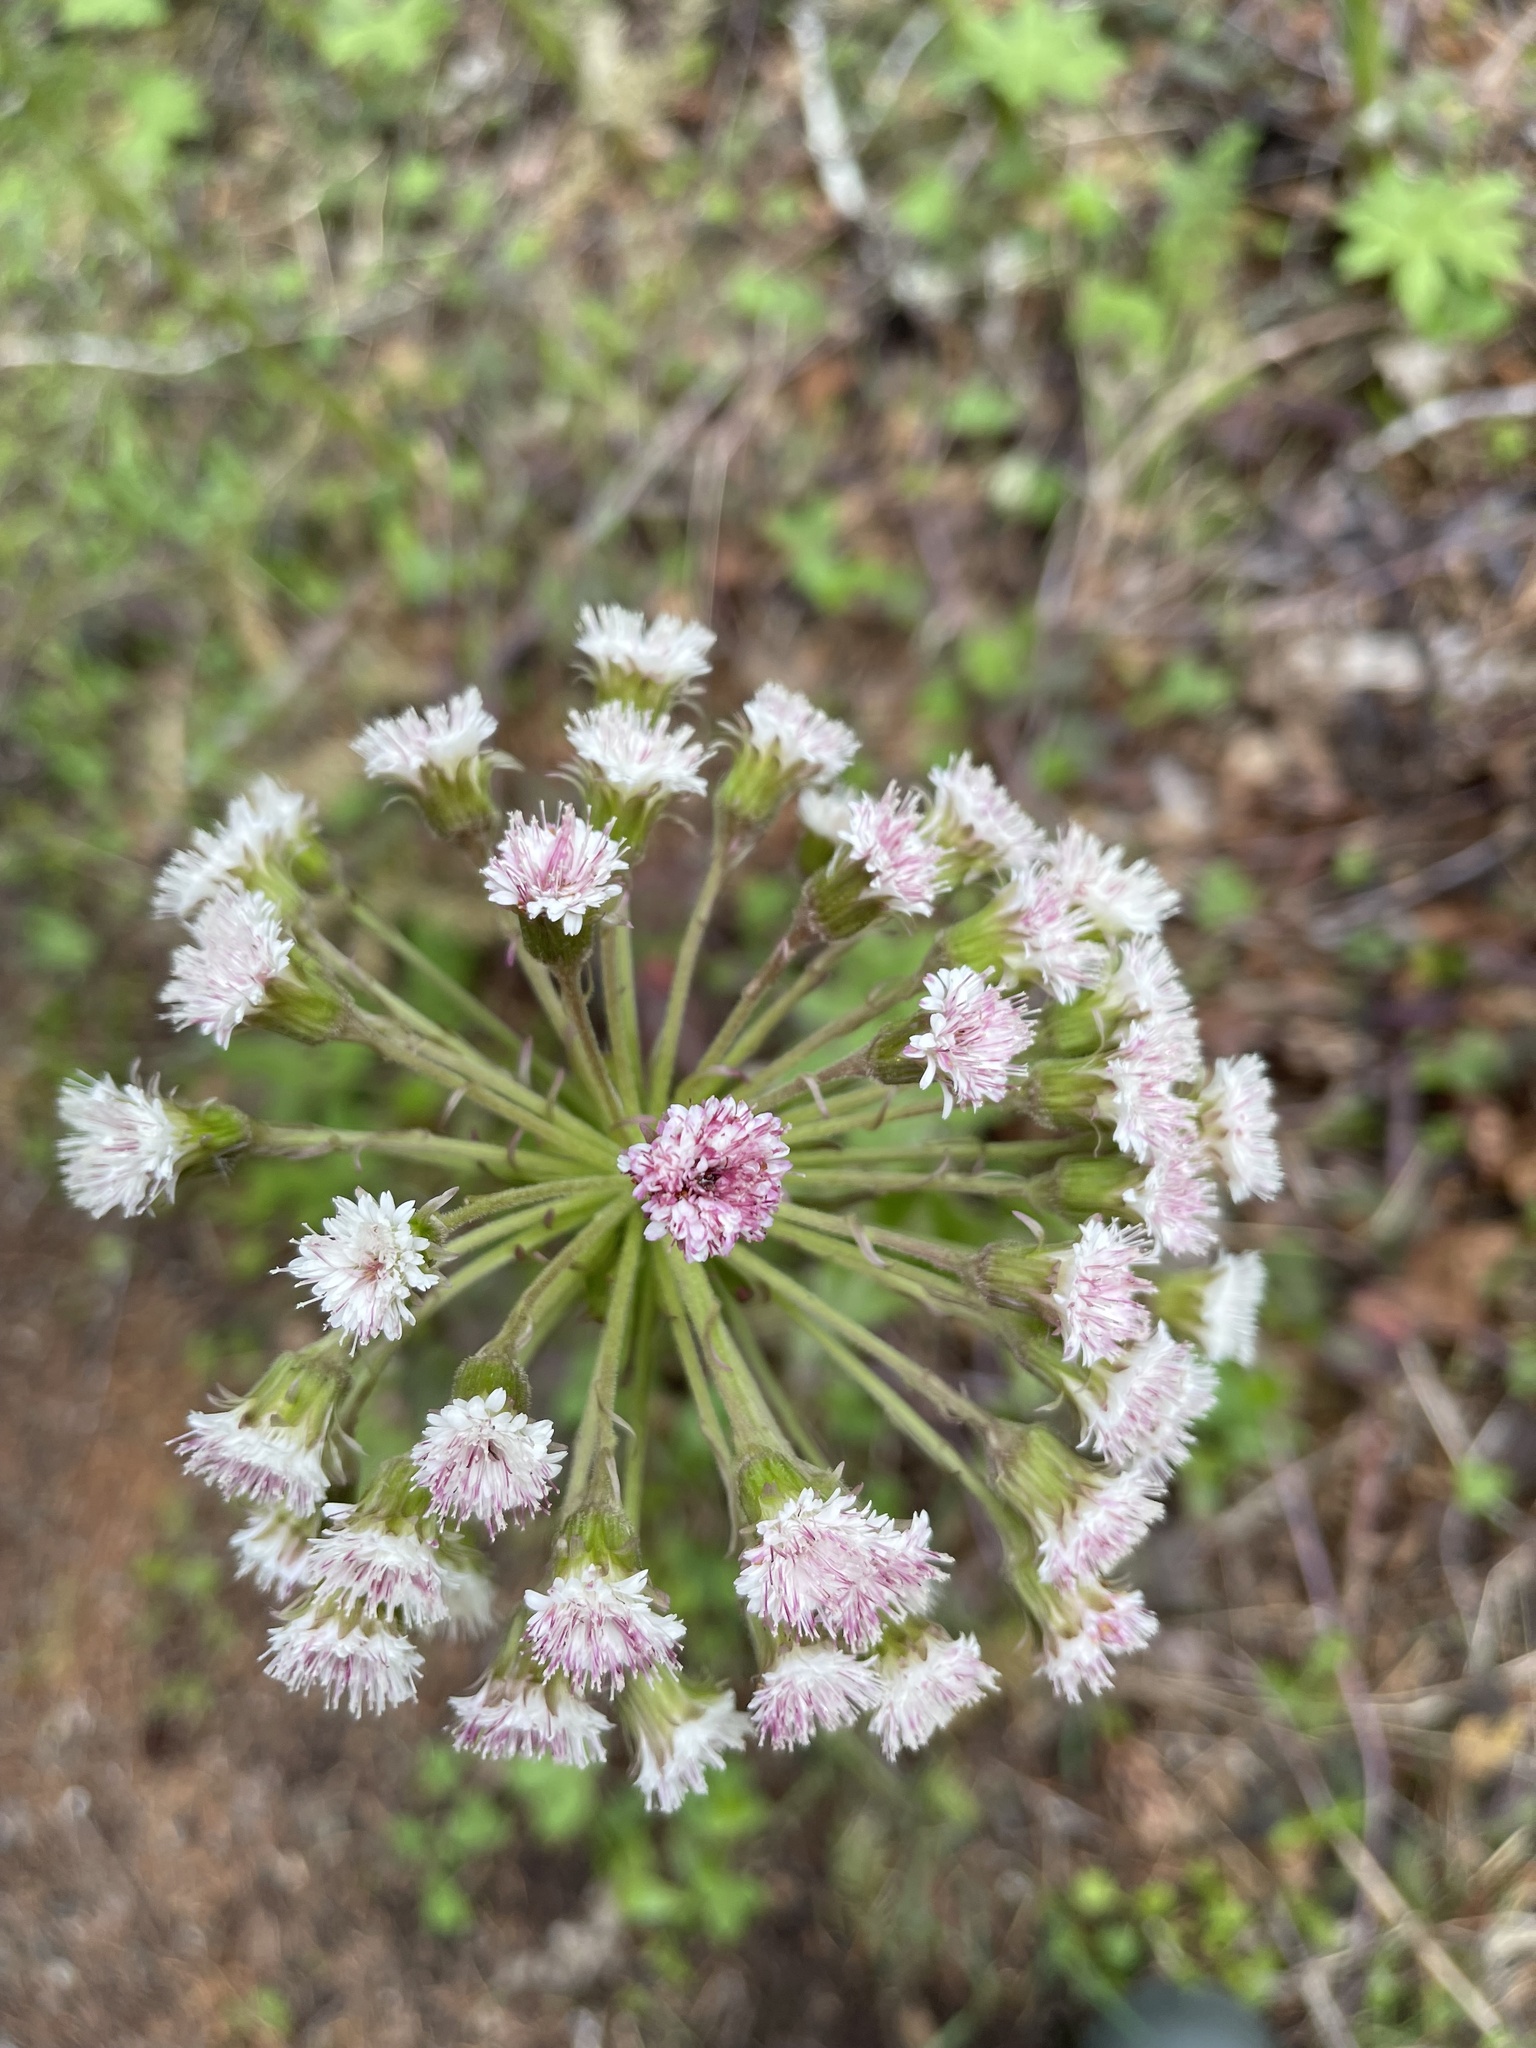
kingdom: Plantae
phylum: Tracheophyta
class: Magnoliopsida
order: Asterales
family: Asteraceae
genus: Petasites
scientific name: Petasites frigidus
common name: Arctic butterbur
